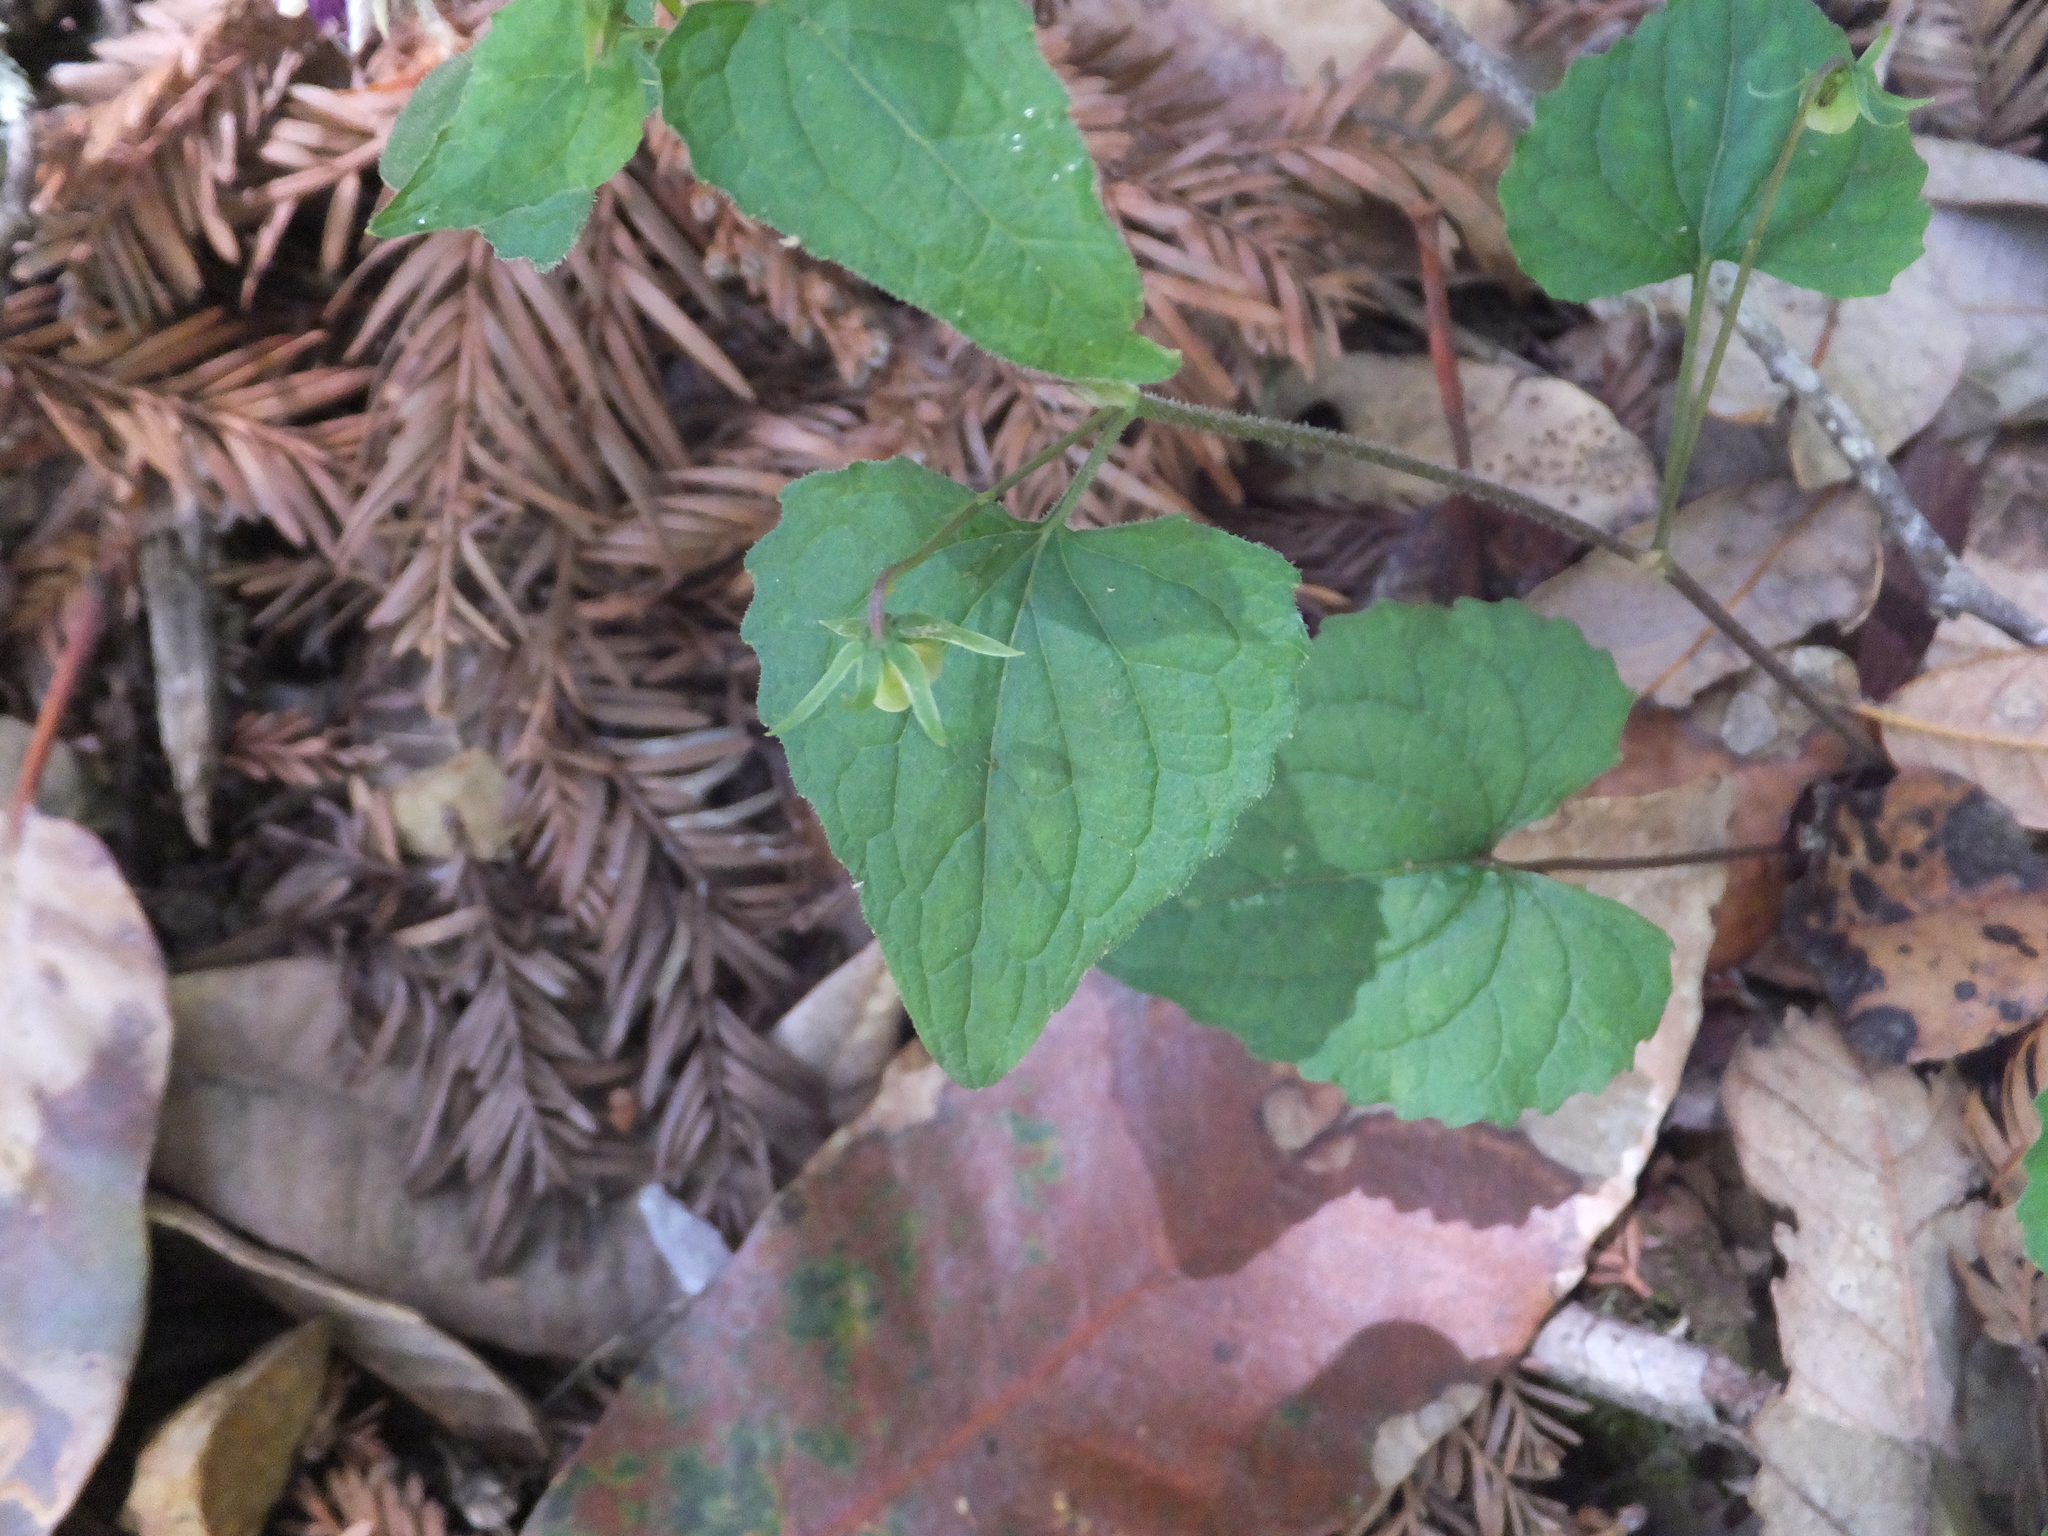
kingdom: Plantae
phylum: Tracheophyta
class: Magnoliopsida
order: Malpighiales
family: Violaceae
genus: Viola
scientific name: Viola ocellata
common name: Western heart's ease
